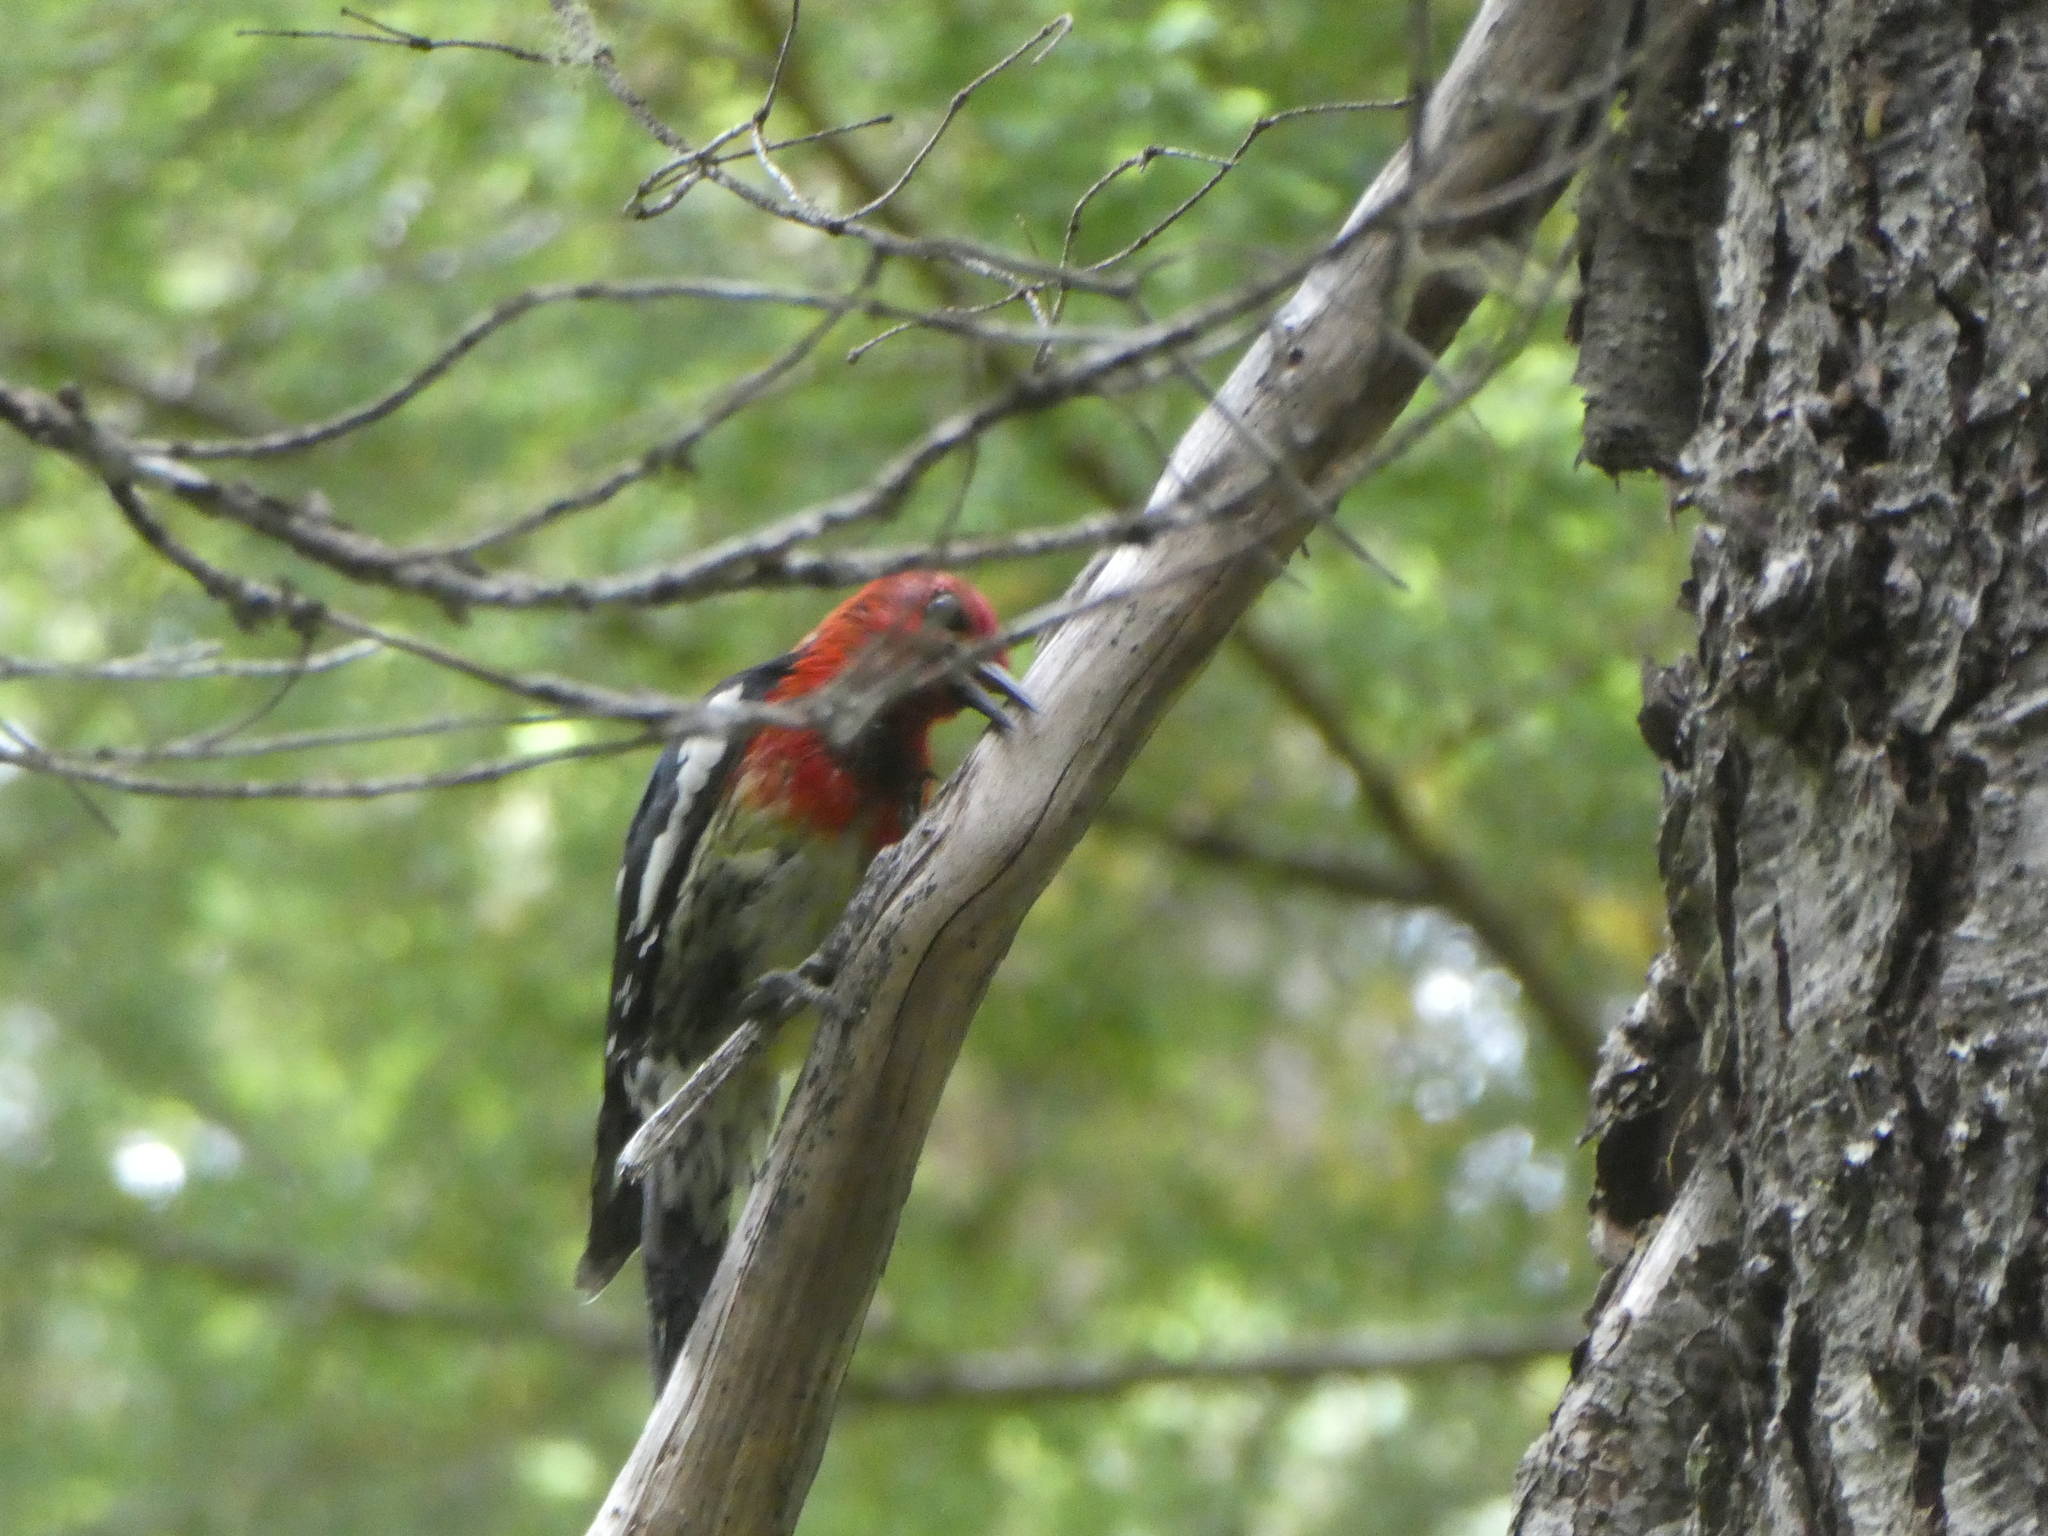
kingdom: Animalia
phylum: Chordata
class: Aves
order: Piciformes
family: Picidae
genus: Sphyrapicus
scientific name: Sphyrapicus ruber
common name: Red-breasted sapsucker
